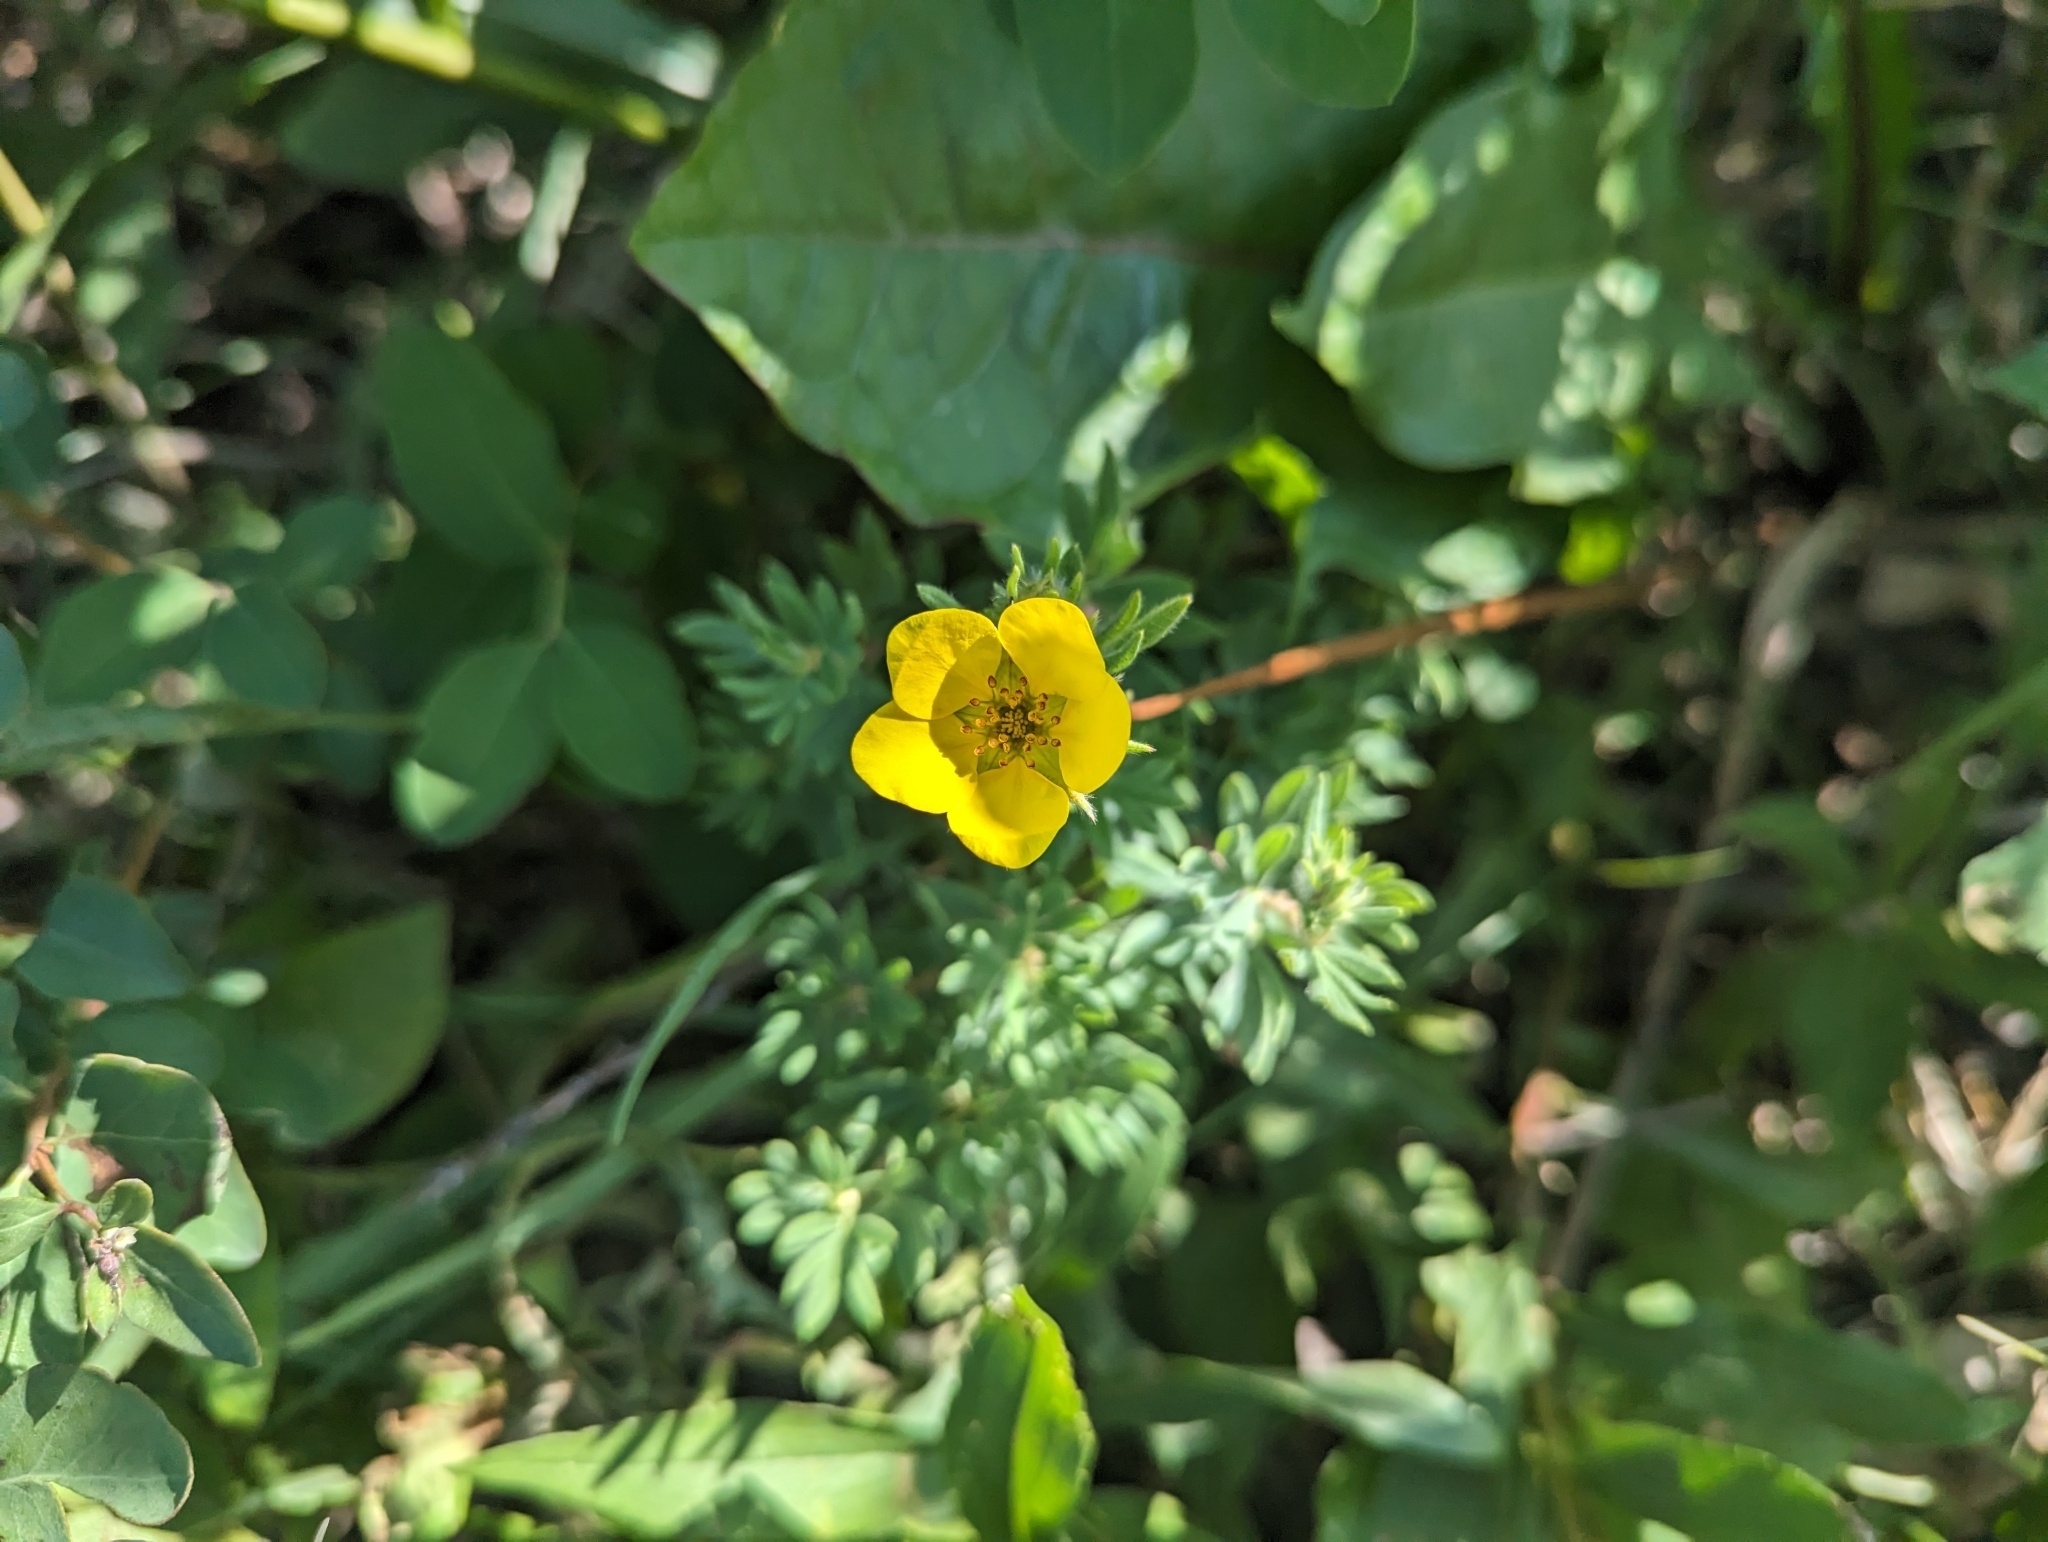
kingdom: Plantae
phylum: Tracheophyta
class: Magnoliopsida
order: Rosales
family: Rosaceae
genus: Dasiphora
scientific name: Dasiphora fruticosa
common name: Shrubby cinquefoil
